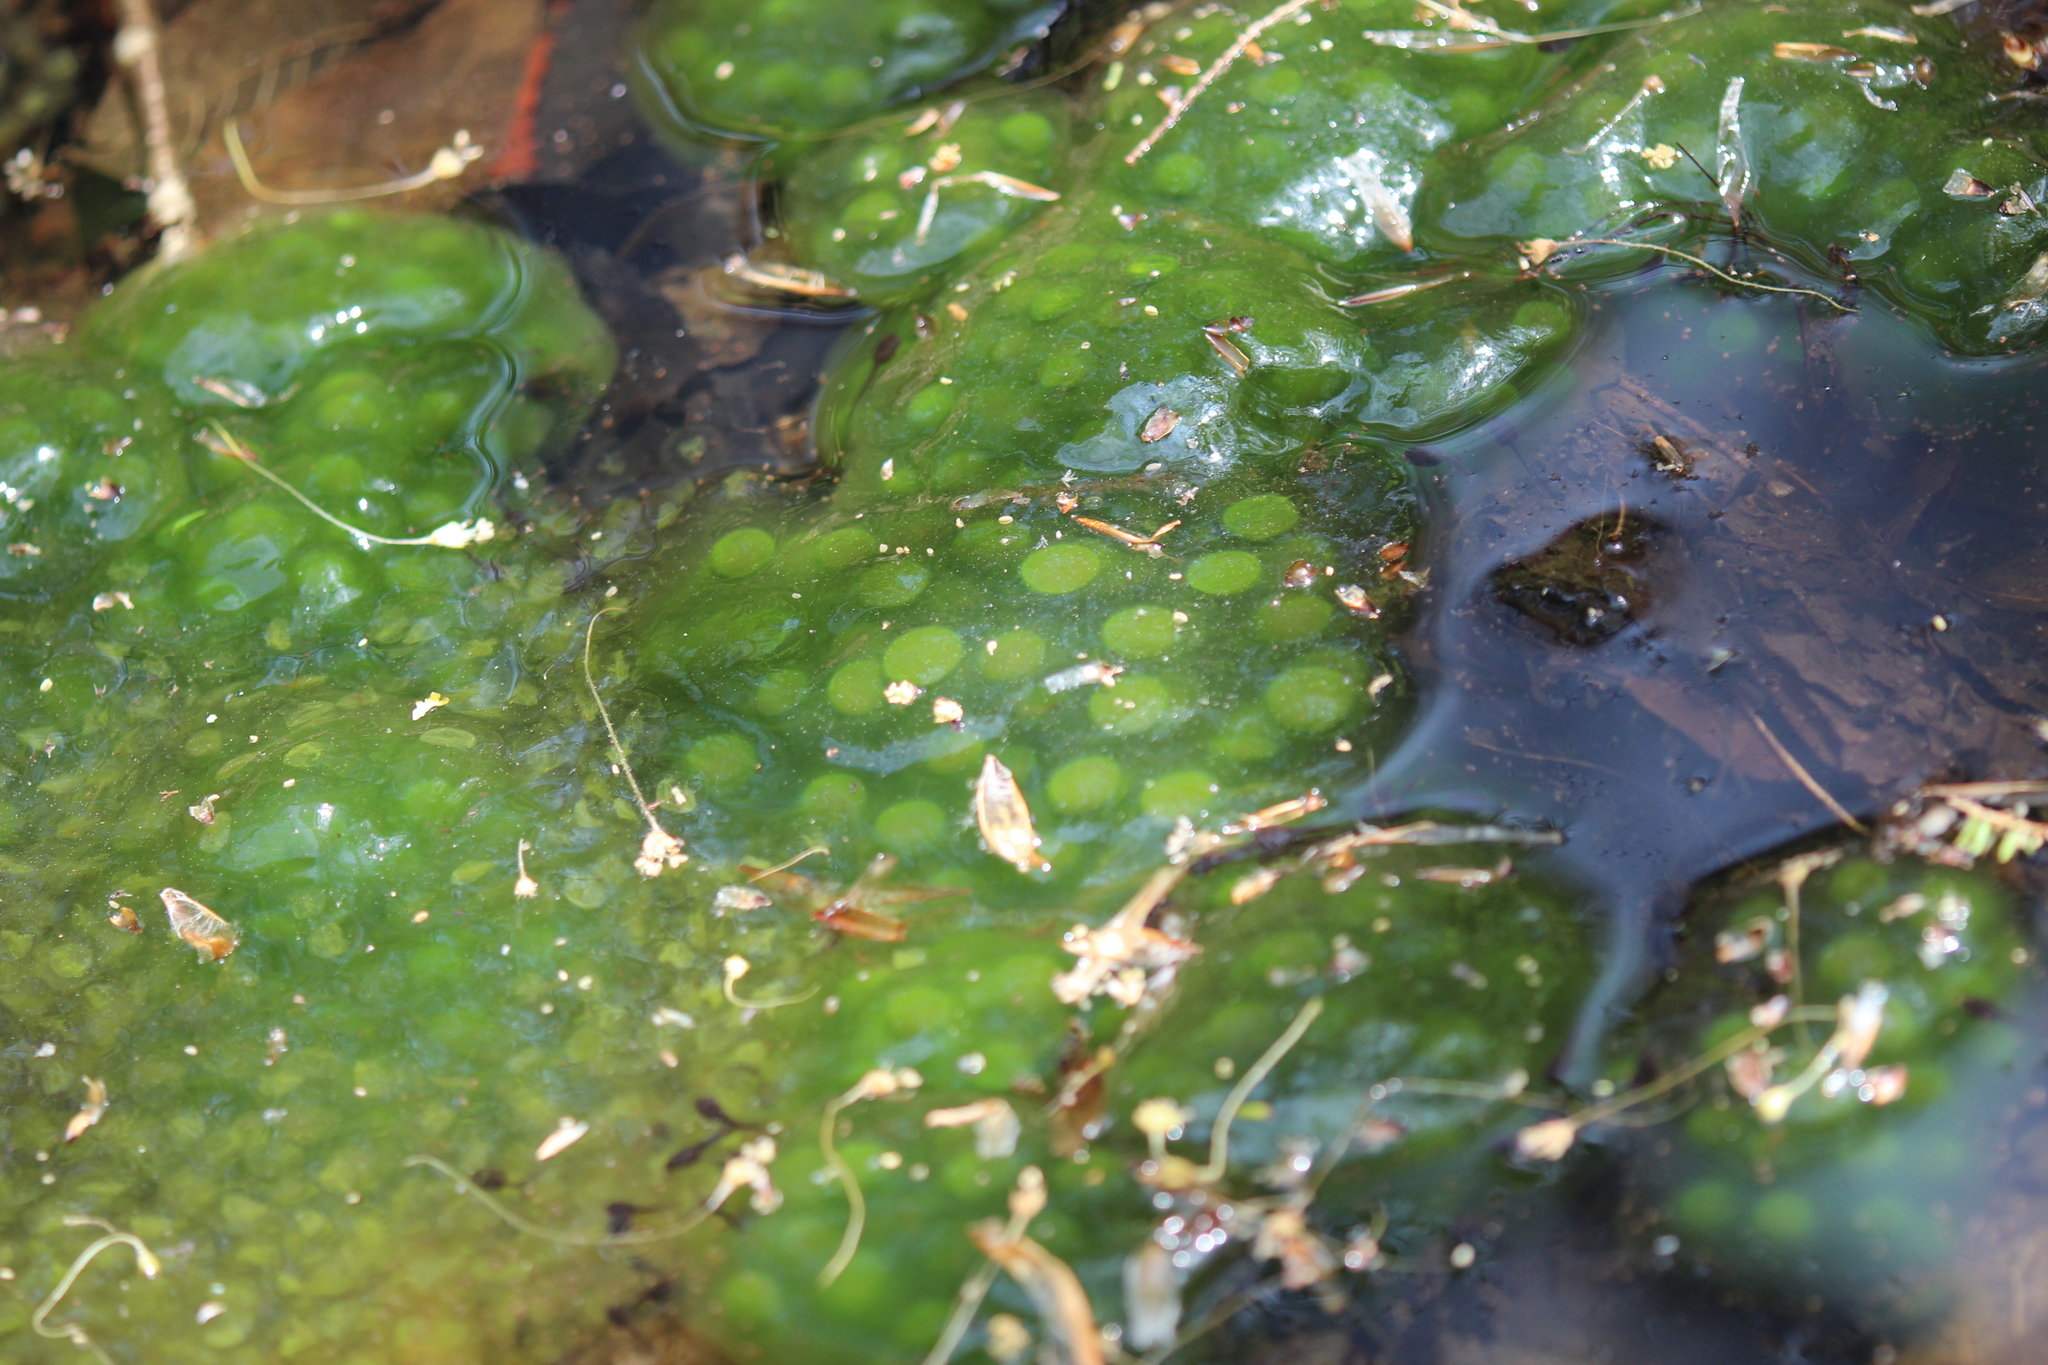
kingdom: Animalia
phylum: Chordata
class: Amphibia
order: Caudata
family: Ambystomatidae
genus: Ambystoma
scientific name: Ambystoma maculatum
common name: Spotted salamander
